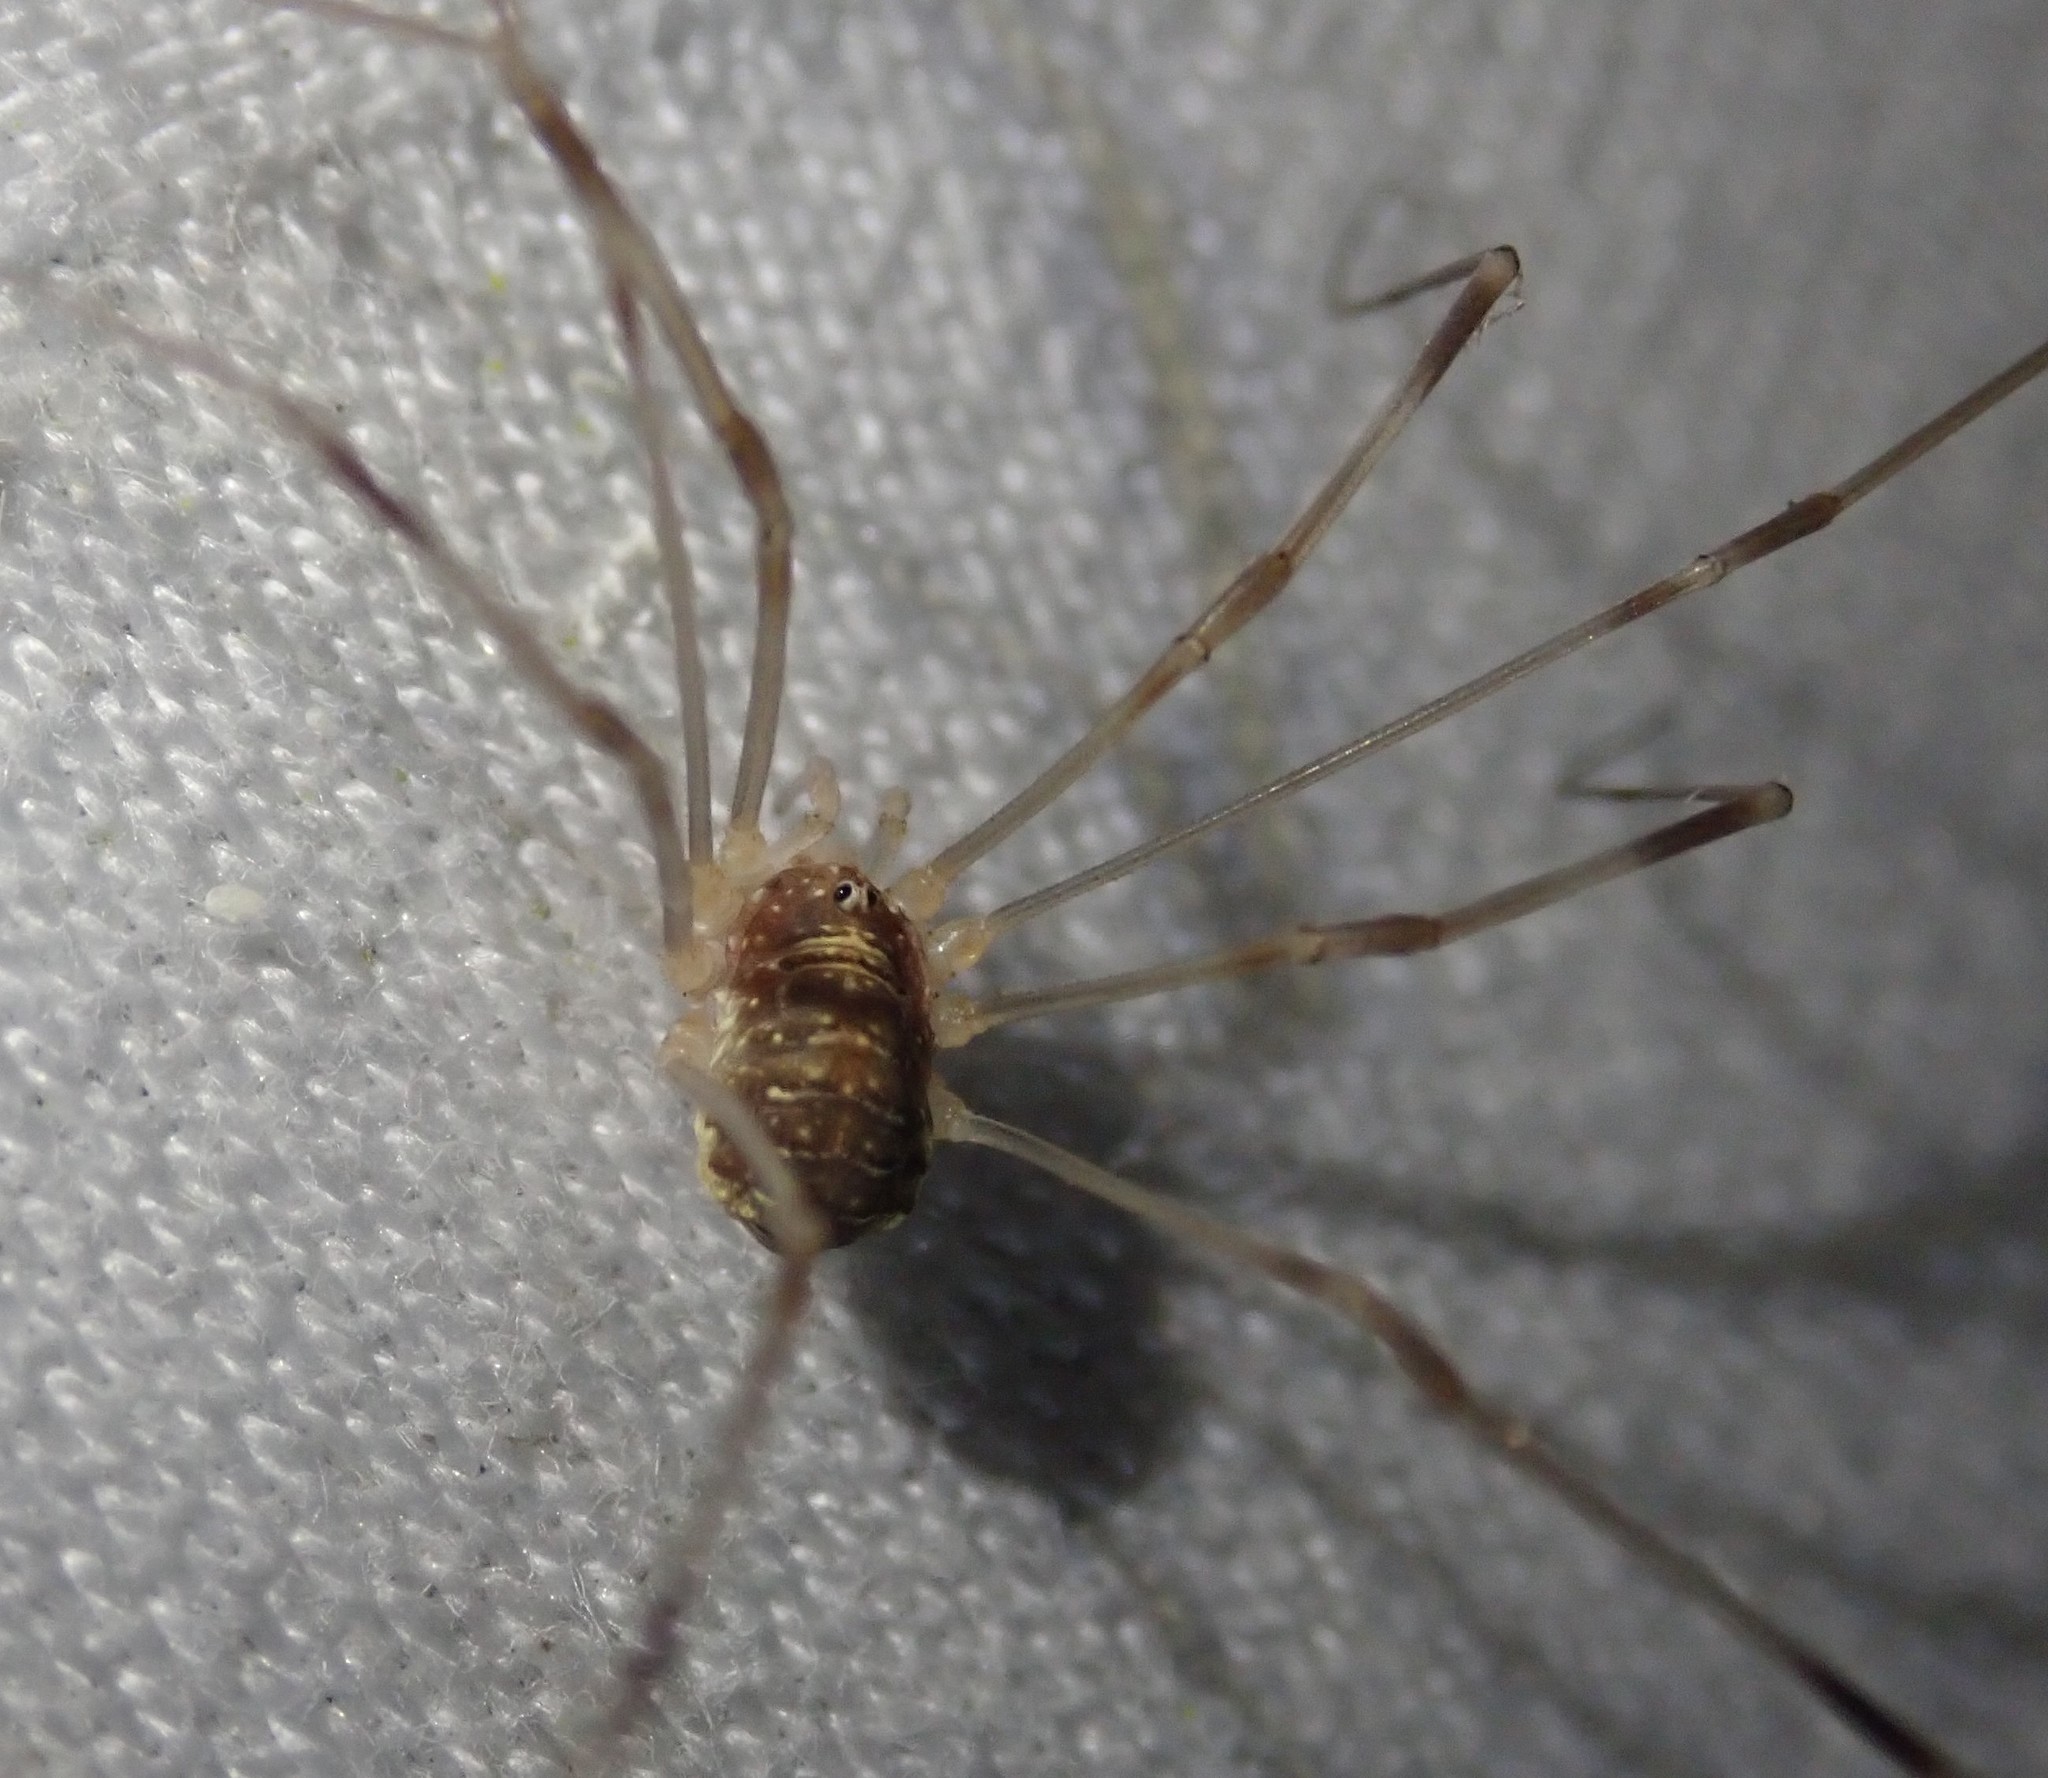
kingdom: Animalia
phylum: Arthropoda
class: Arachnida
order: Opiliones
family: Phalangiidae
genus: Opilio
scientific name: Opilio canestrinii
